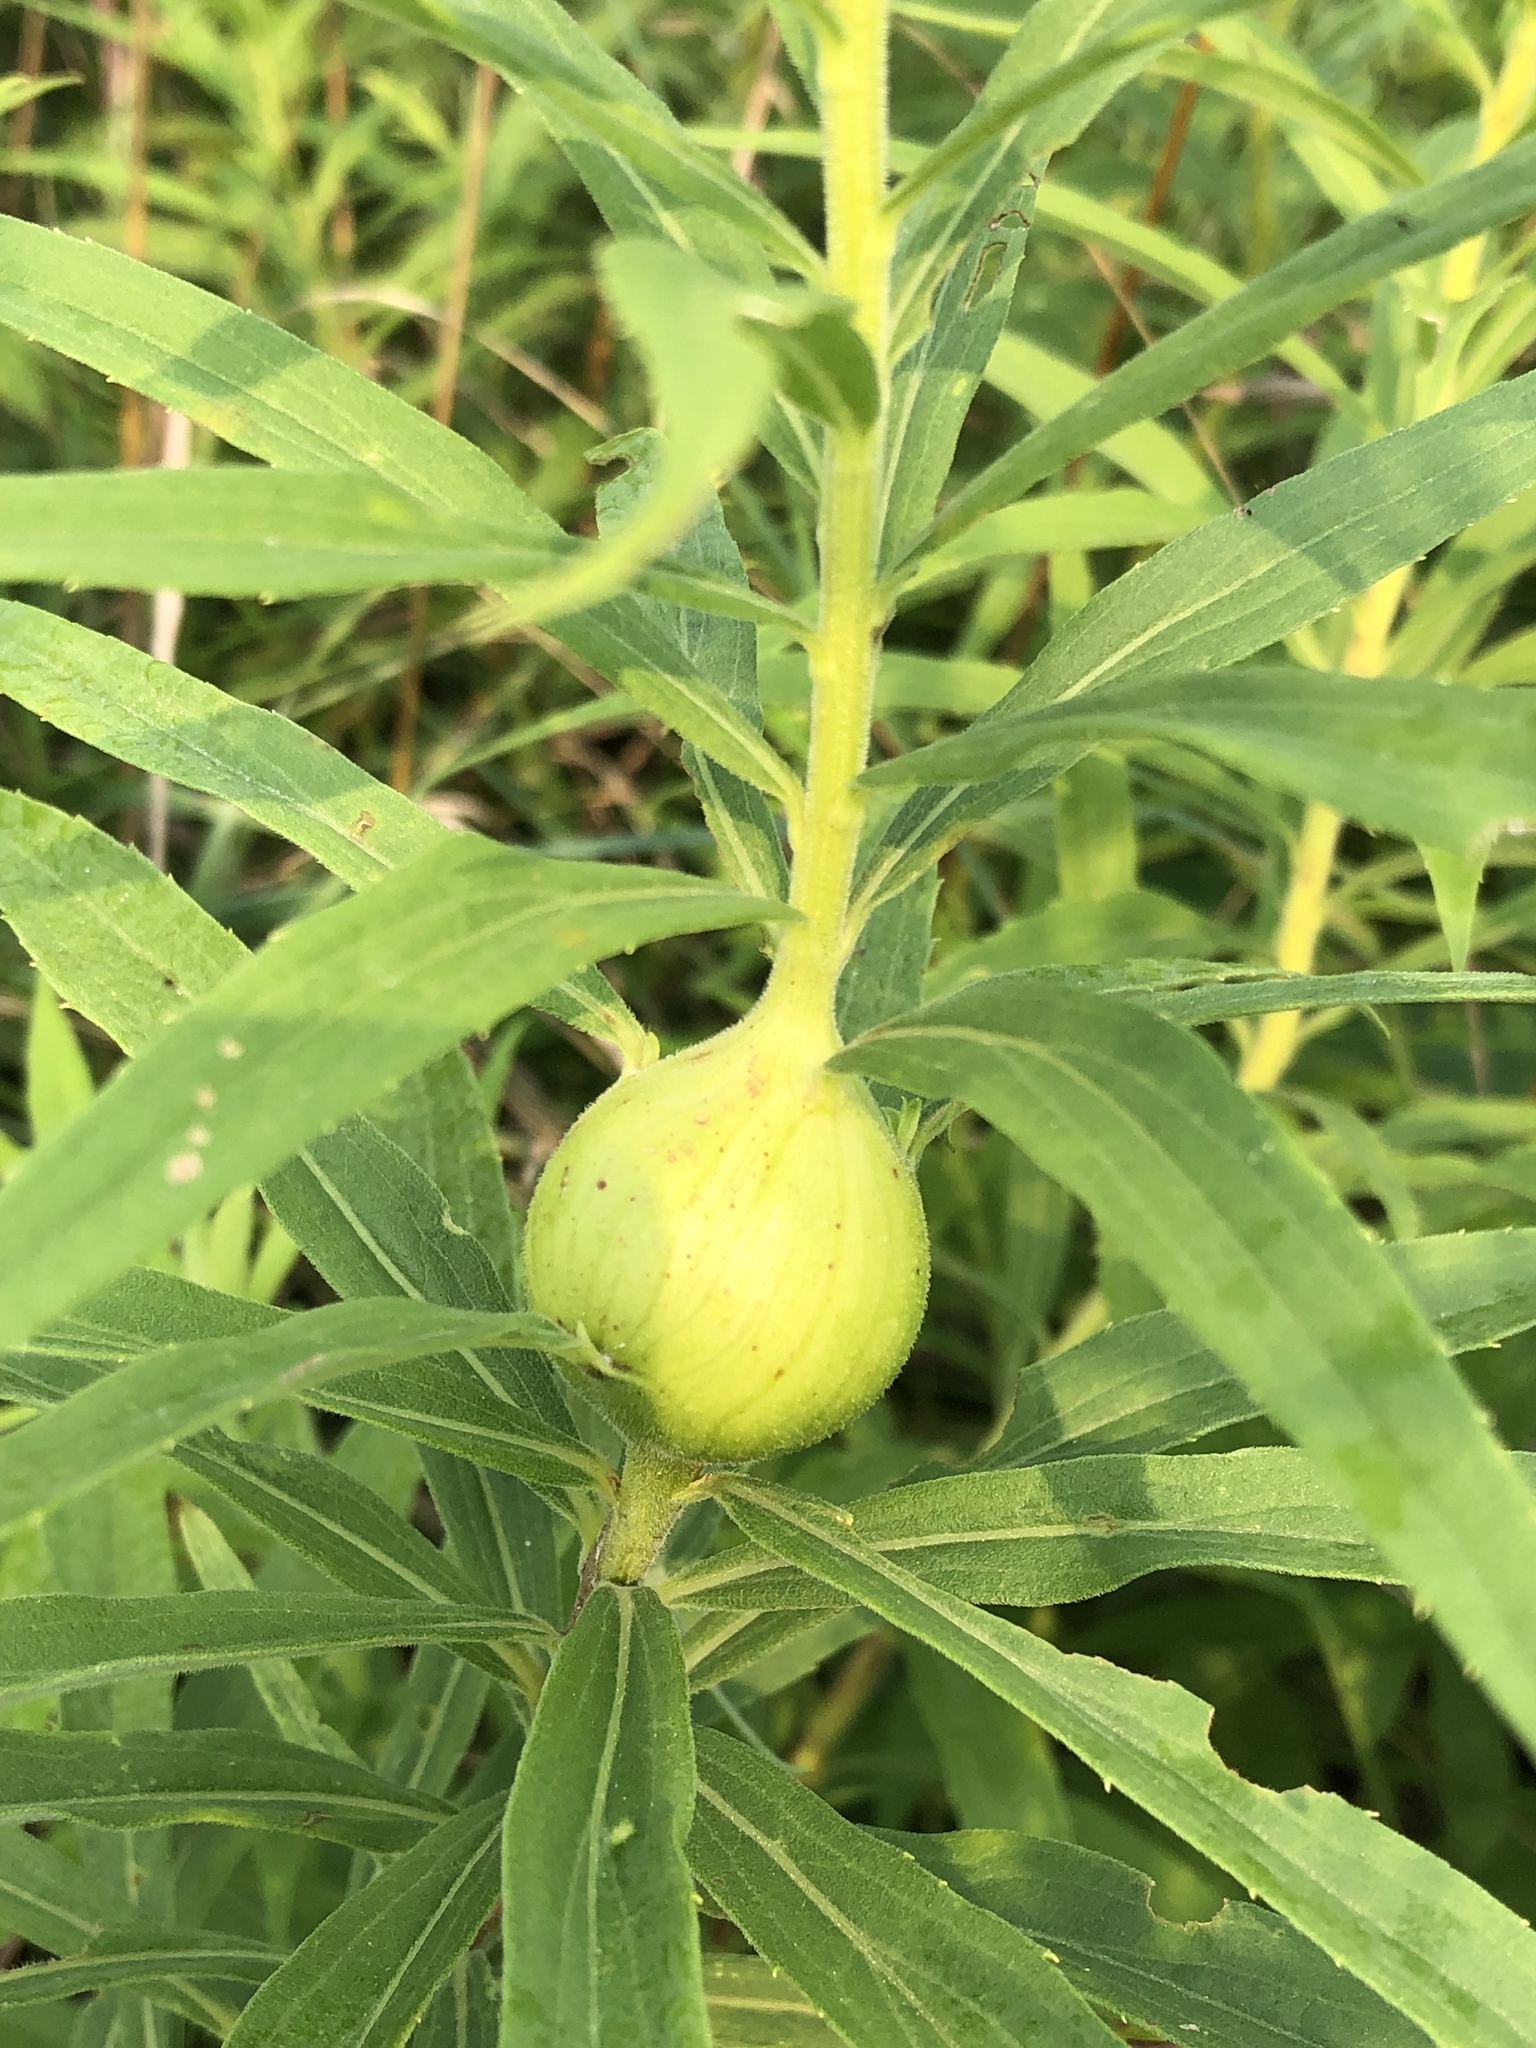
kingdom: Animalia
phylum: Arthropoda
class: Insecta
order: Diptera
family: Tephritidae
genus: Eurosta
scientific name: Eurosta solidaginis
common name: Goldenrod gall fly
